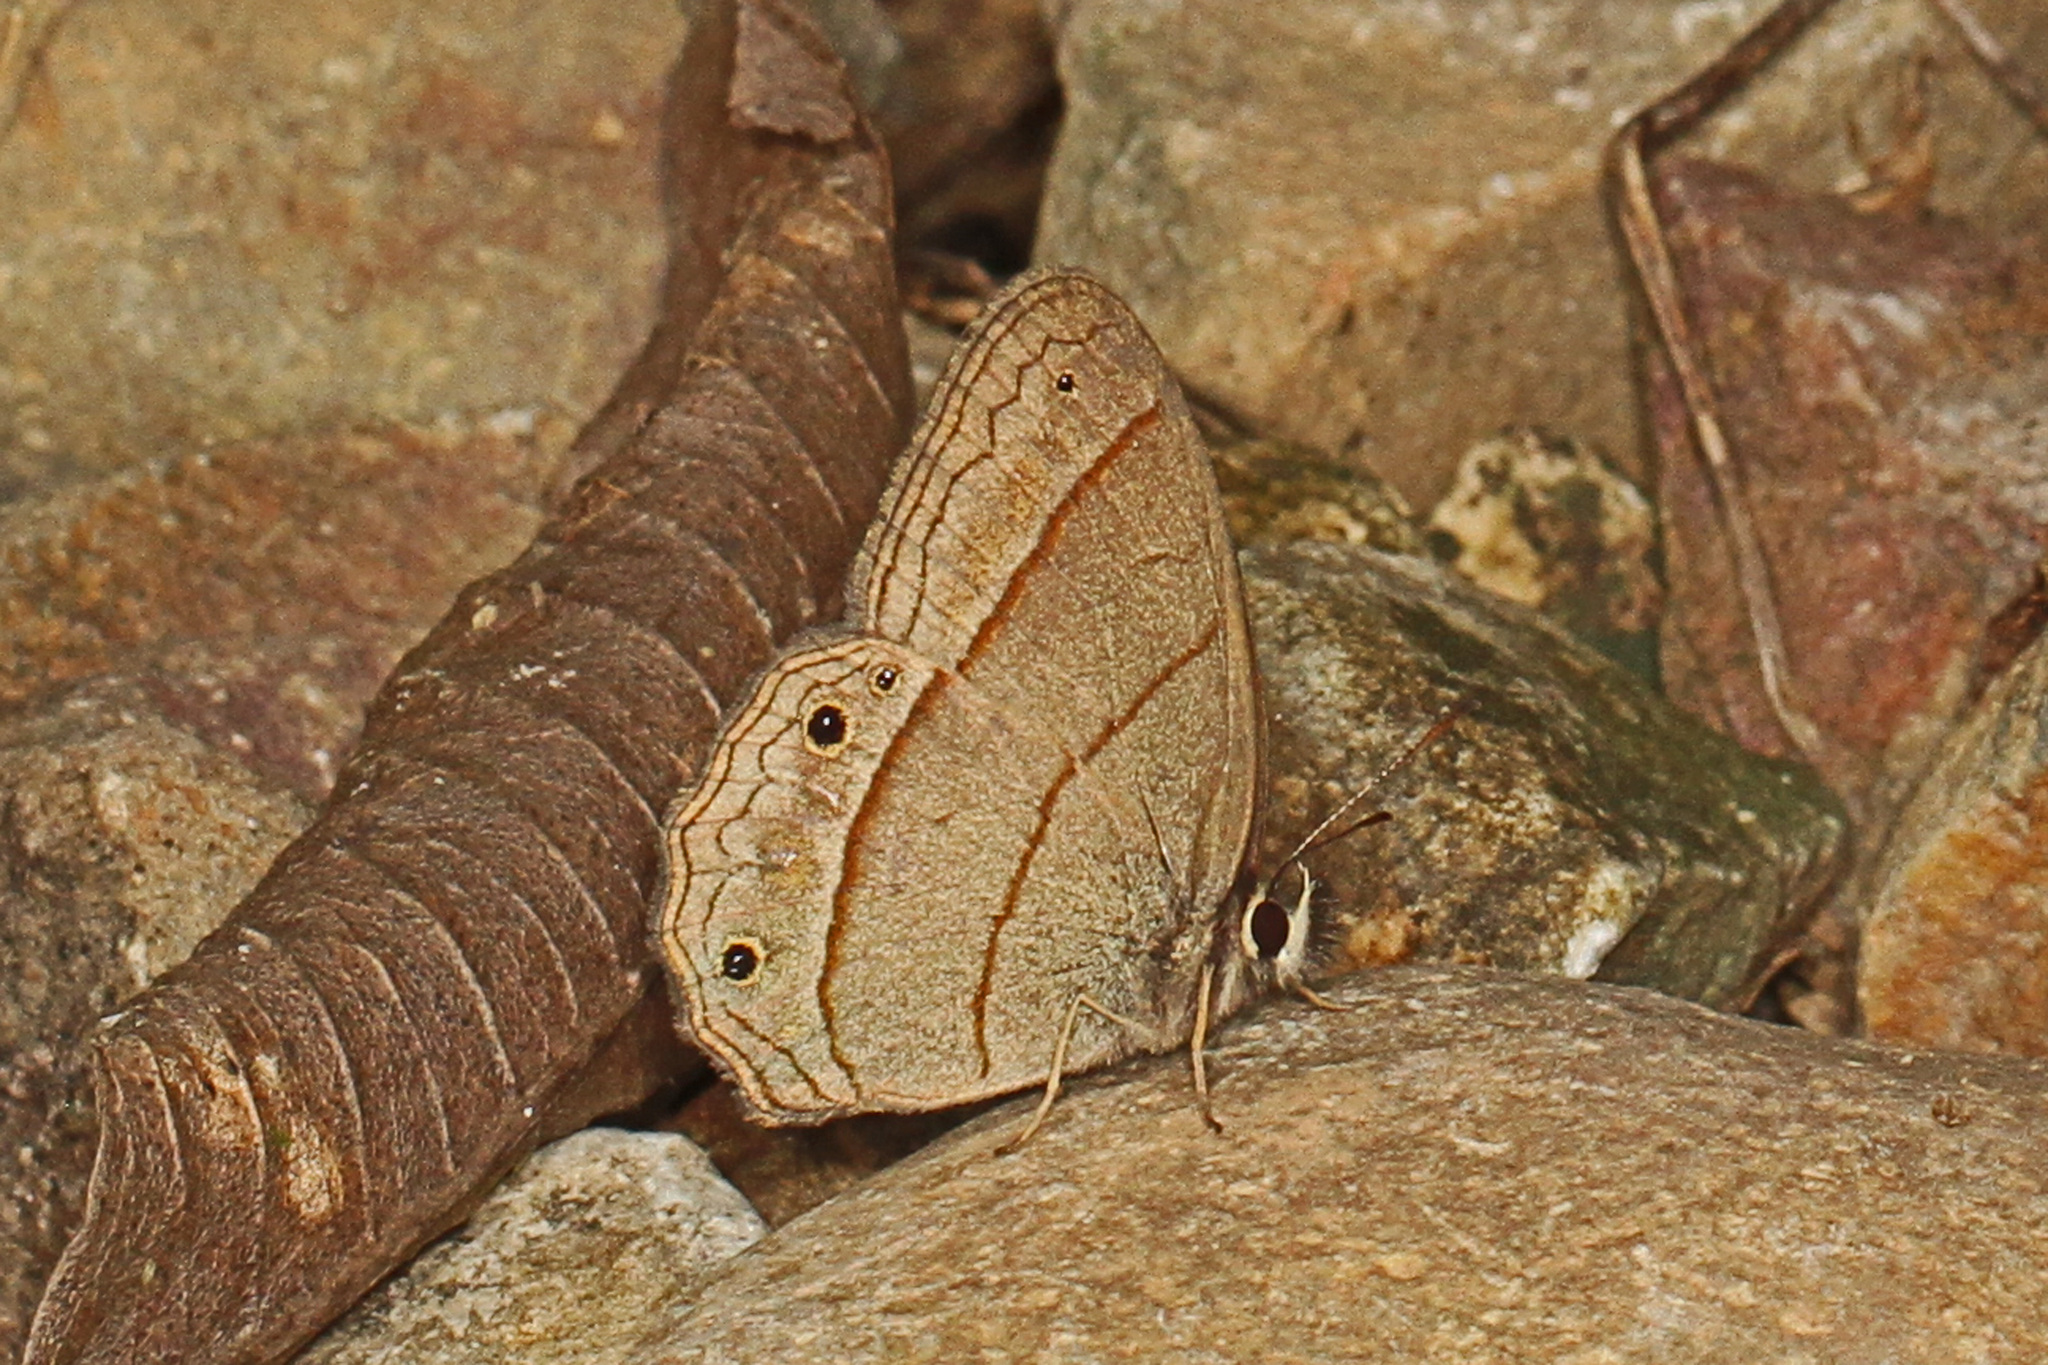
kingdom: Animalia
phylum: Arthropoda
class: Insecta
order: Lepidoptera
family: Nymphalidae
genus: Euptychia
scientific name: Euptychia Cissia pompilia
